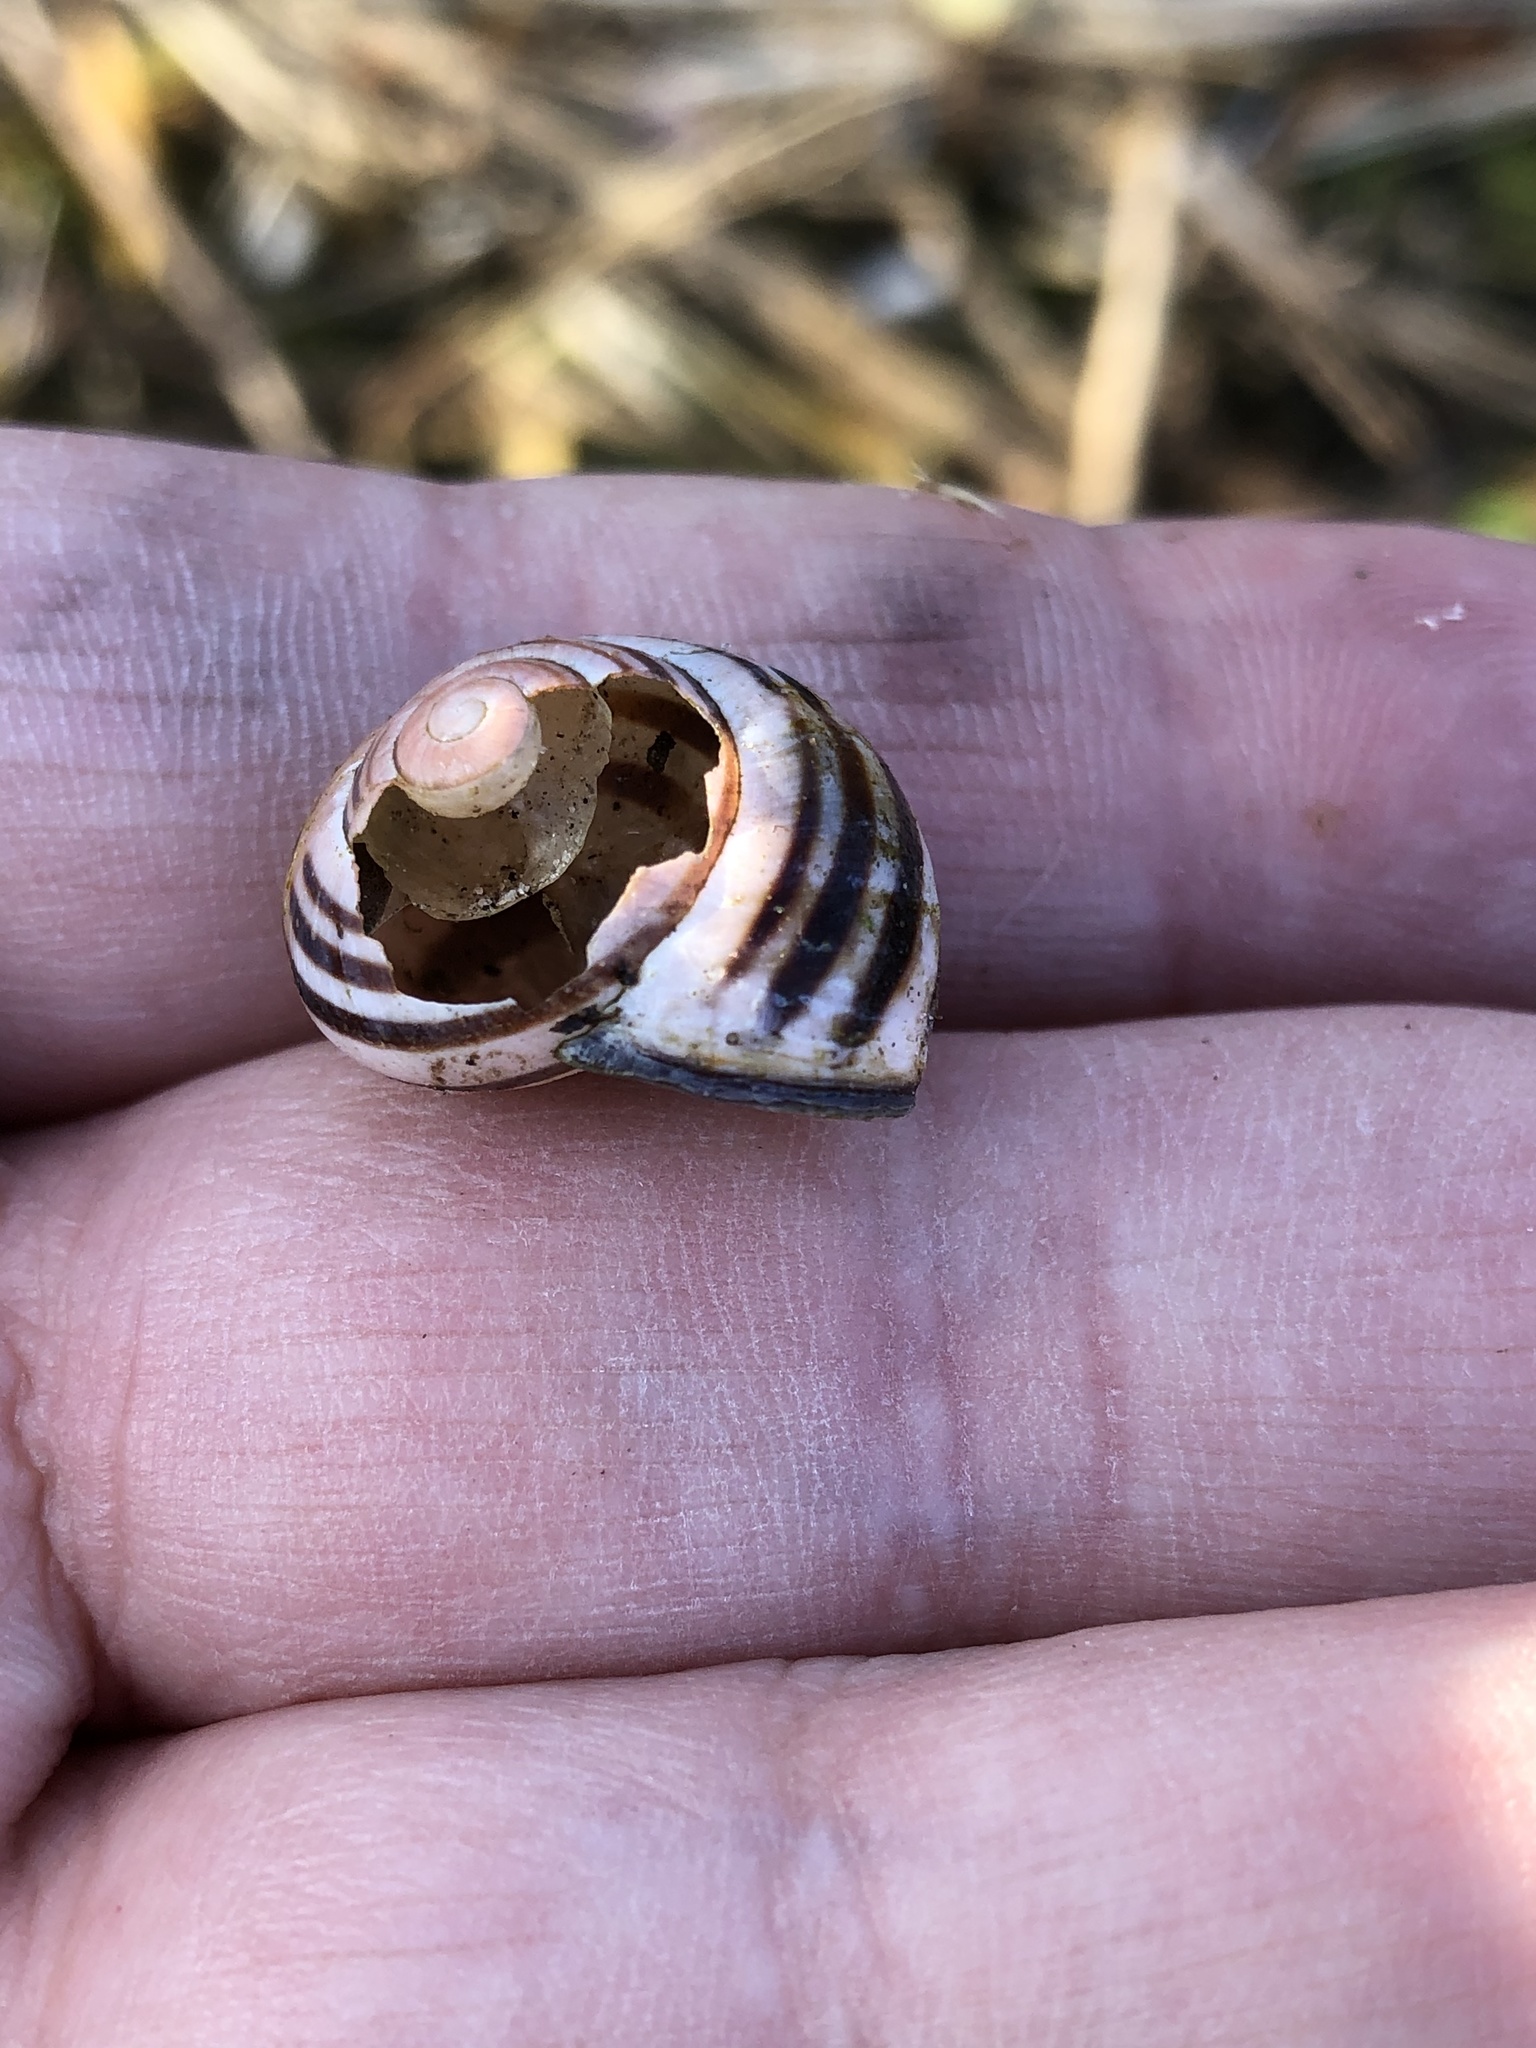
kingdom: Animalia
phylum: Mollusca
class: Gastropoda
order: Stylommatophora
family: Helicidae
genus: Cepaea
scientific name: Cepaea nemoralis
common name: Grovesnail
